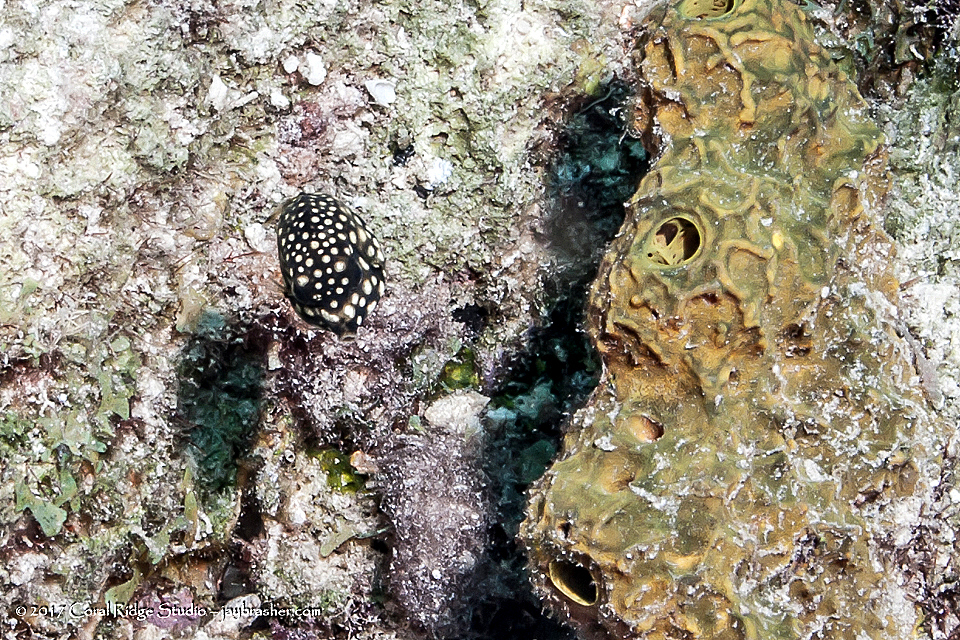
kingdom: Animalia
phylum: Chordata
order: Tetraodontiformes
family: Ostraciidae
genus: Lactophrys
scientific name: Lactophrys triqueter
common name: Smooth trunkfish
